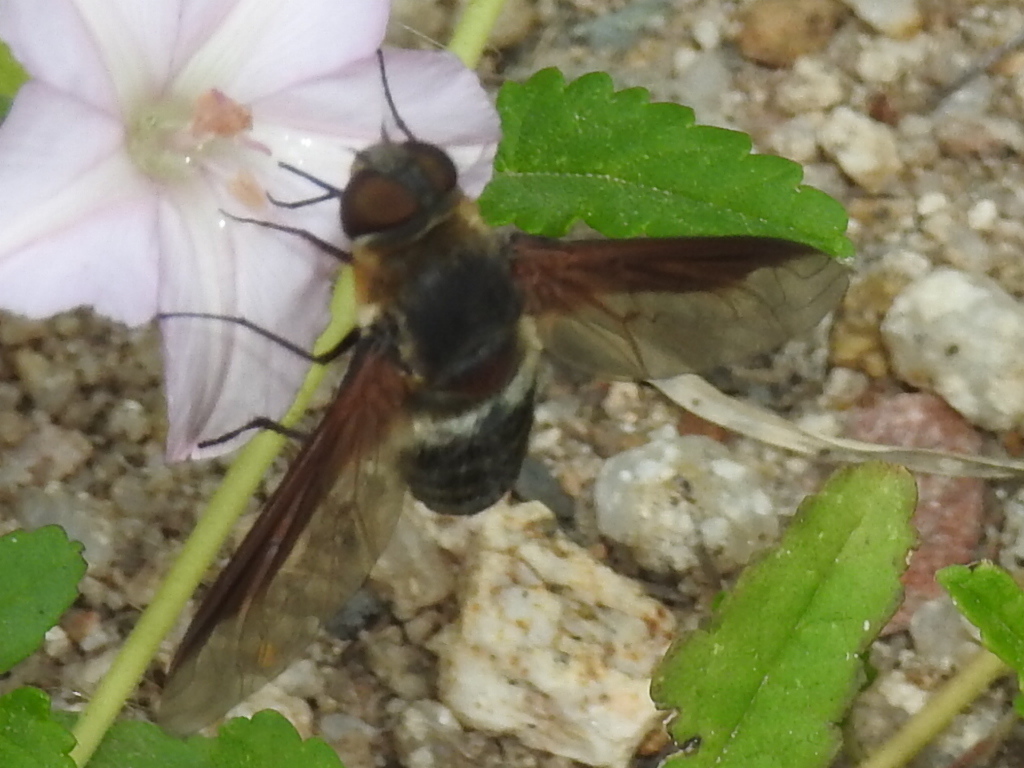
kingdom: Animalia
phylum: Arthropoda
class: Insecta
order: Diptera
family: Bombyliidae
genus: Exoprosopa
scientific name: Exoprosopa rostrifera
